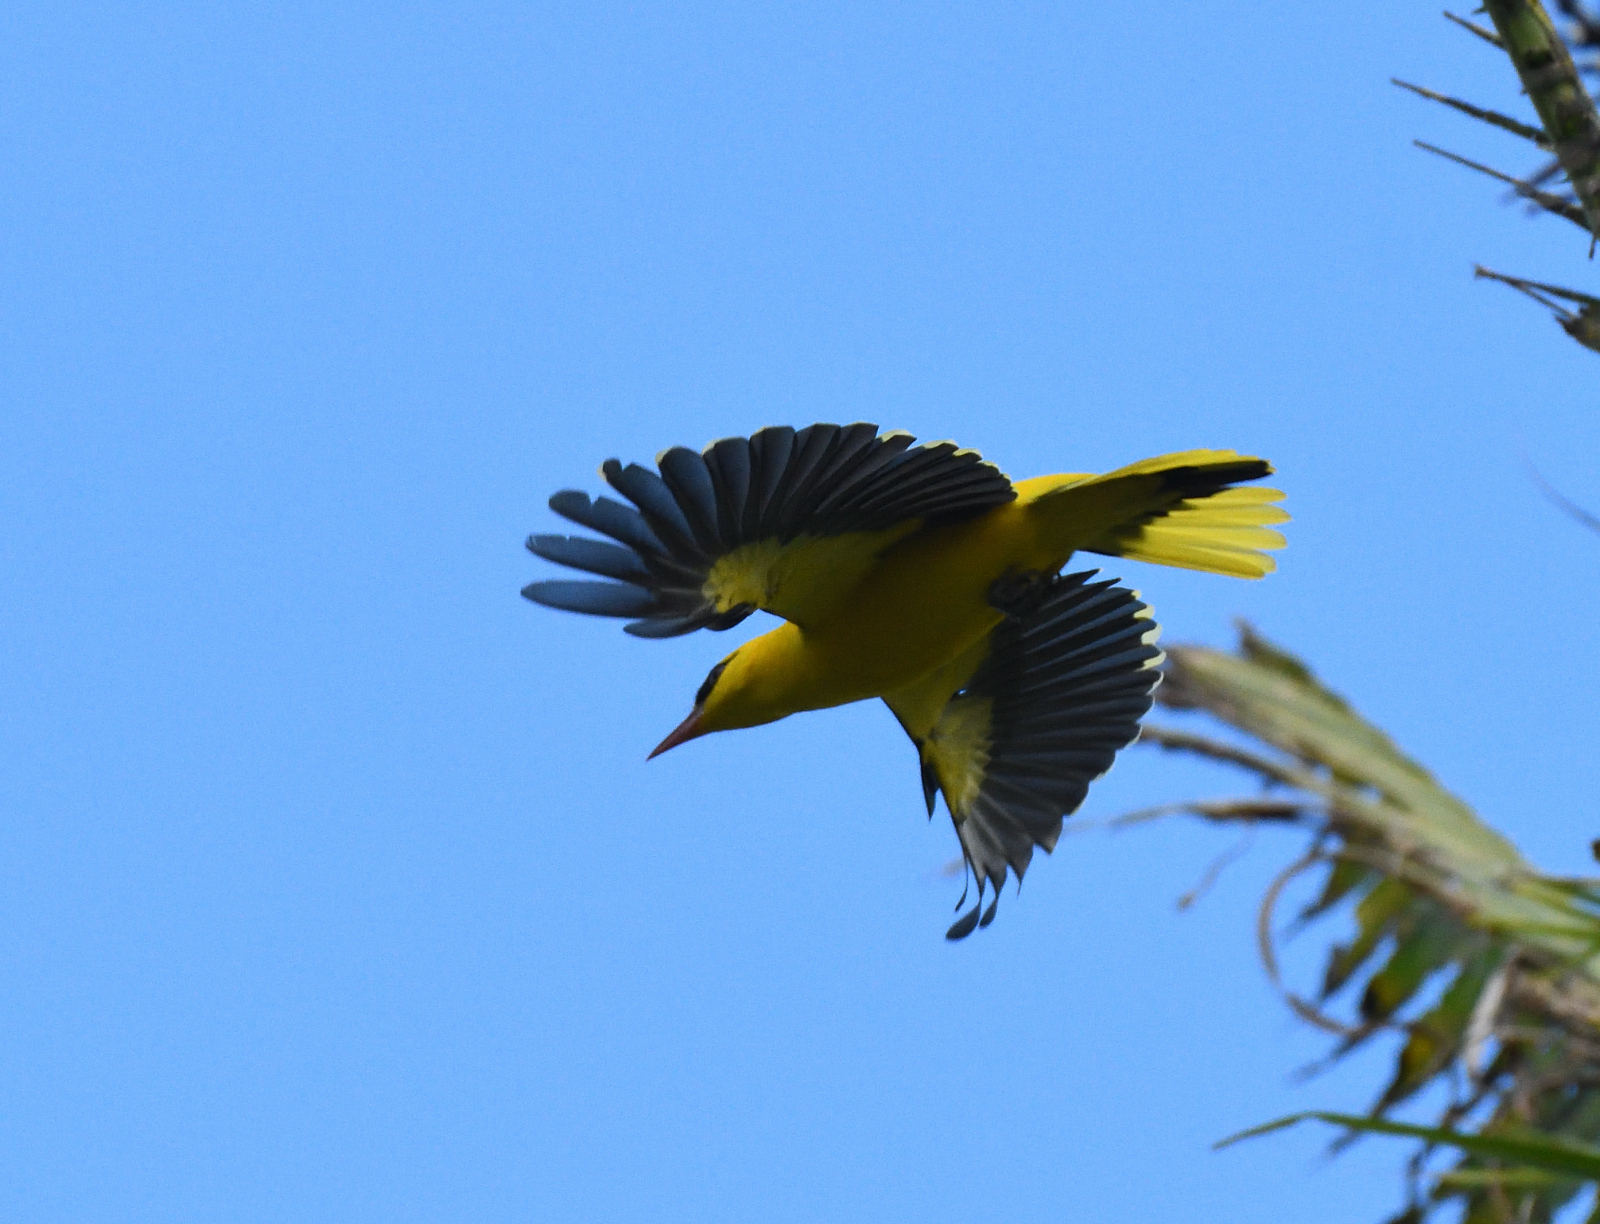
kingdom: Animalia
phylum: Chordata
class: Aves
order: Passeriformes
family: Oriolidae
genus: Oriolus
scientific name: Oriolus kundoo
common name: Indian golden oriole
